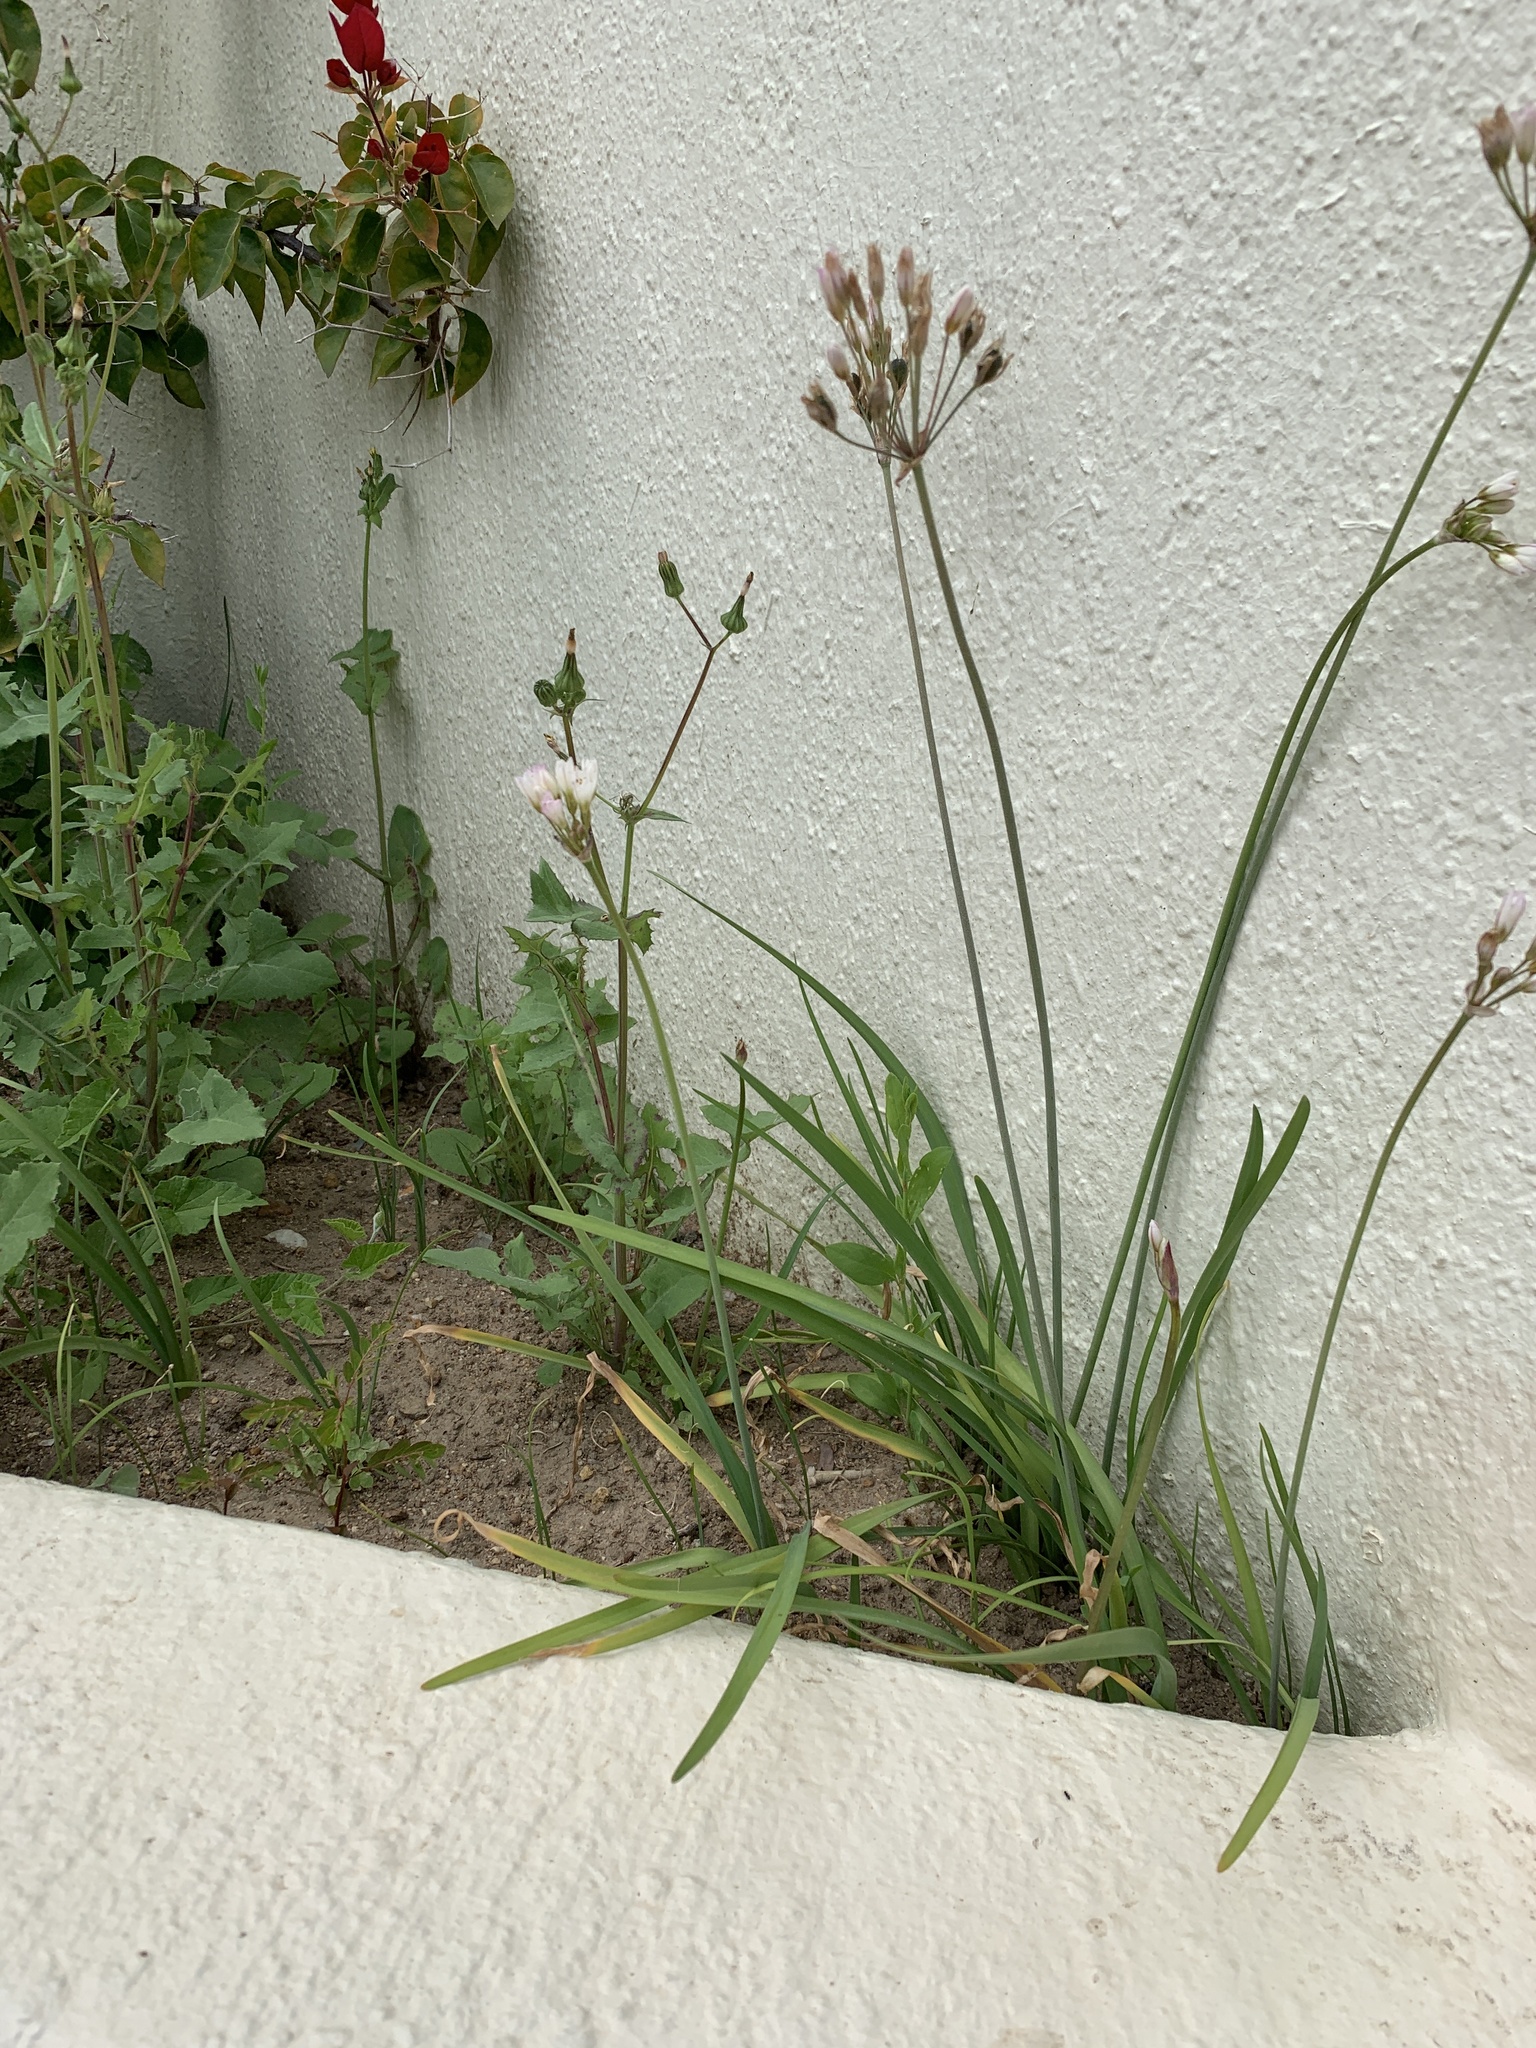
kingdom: Plantae
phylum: Tracheophyta
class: Liliopsida
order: Asparagales
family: Amaryllidaceae
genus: Nothoscordum
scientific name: Nothoscordum gracile
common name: Slender false garlic
